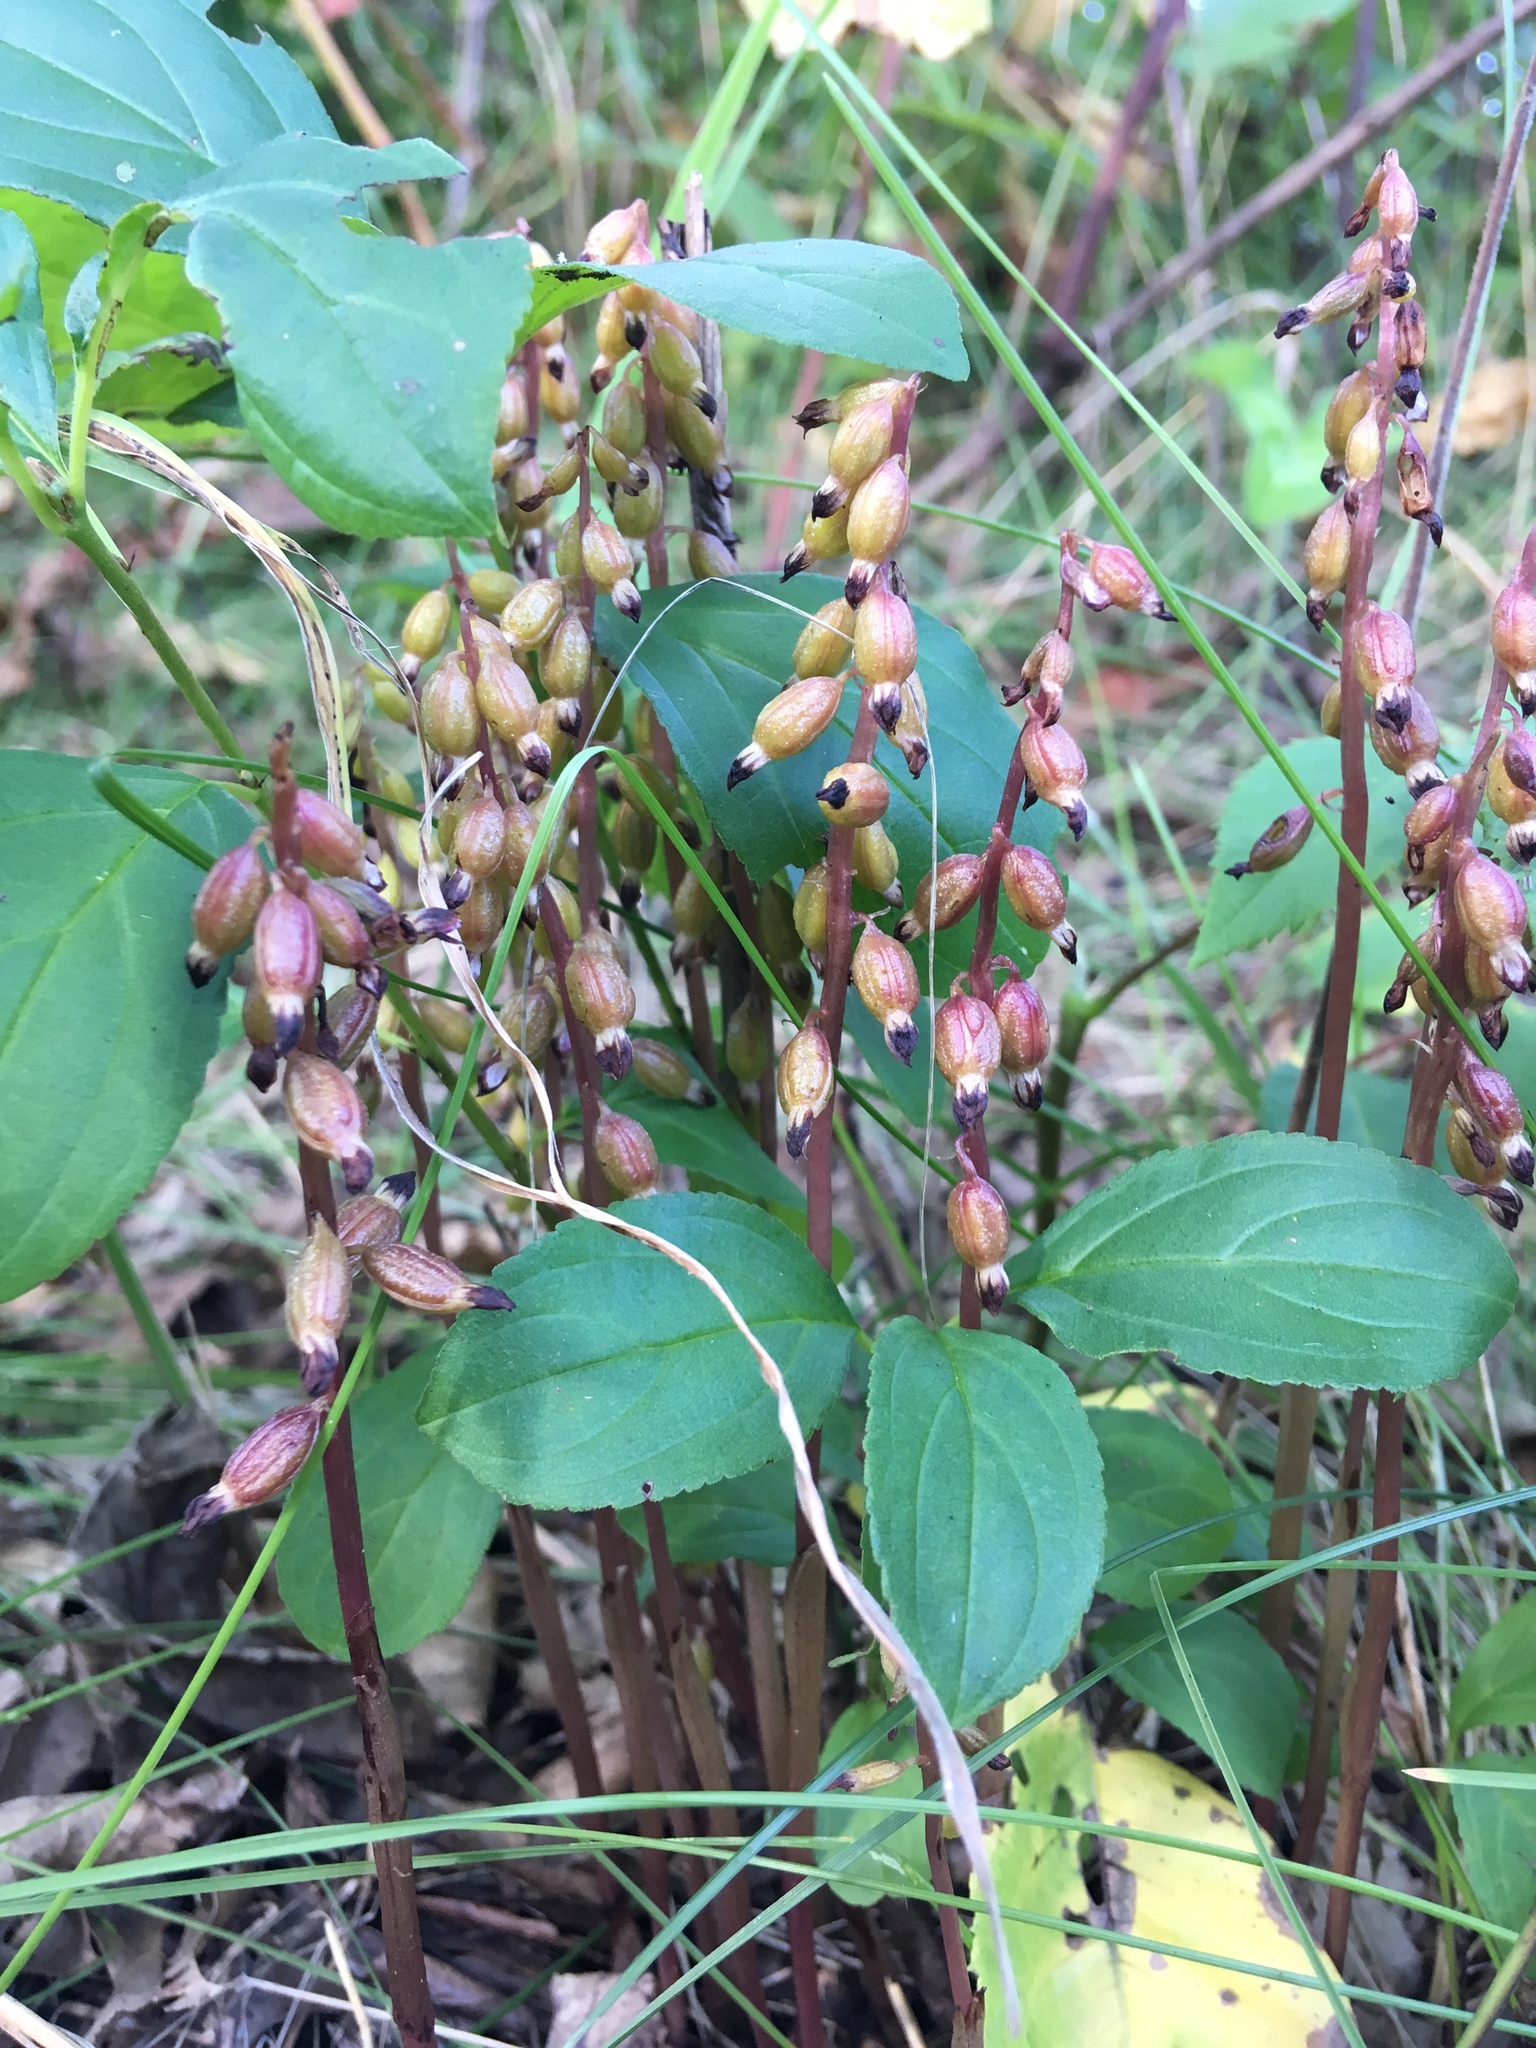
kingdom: Plantae
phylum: Tracheophyta
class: Liliopsida
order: Asparagales
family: Orchidaceae
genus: Corallorhiza
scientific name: Corallorhiza odontorhiza
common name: Autumn coralroot
